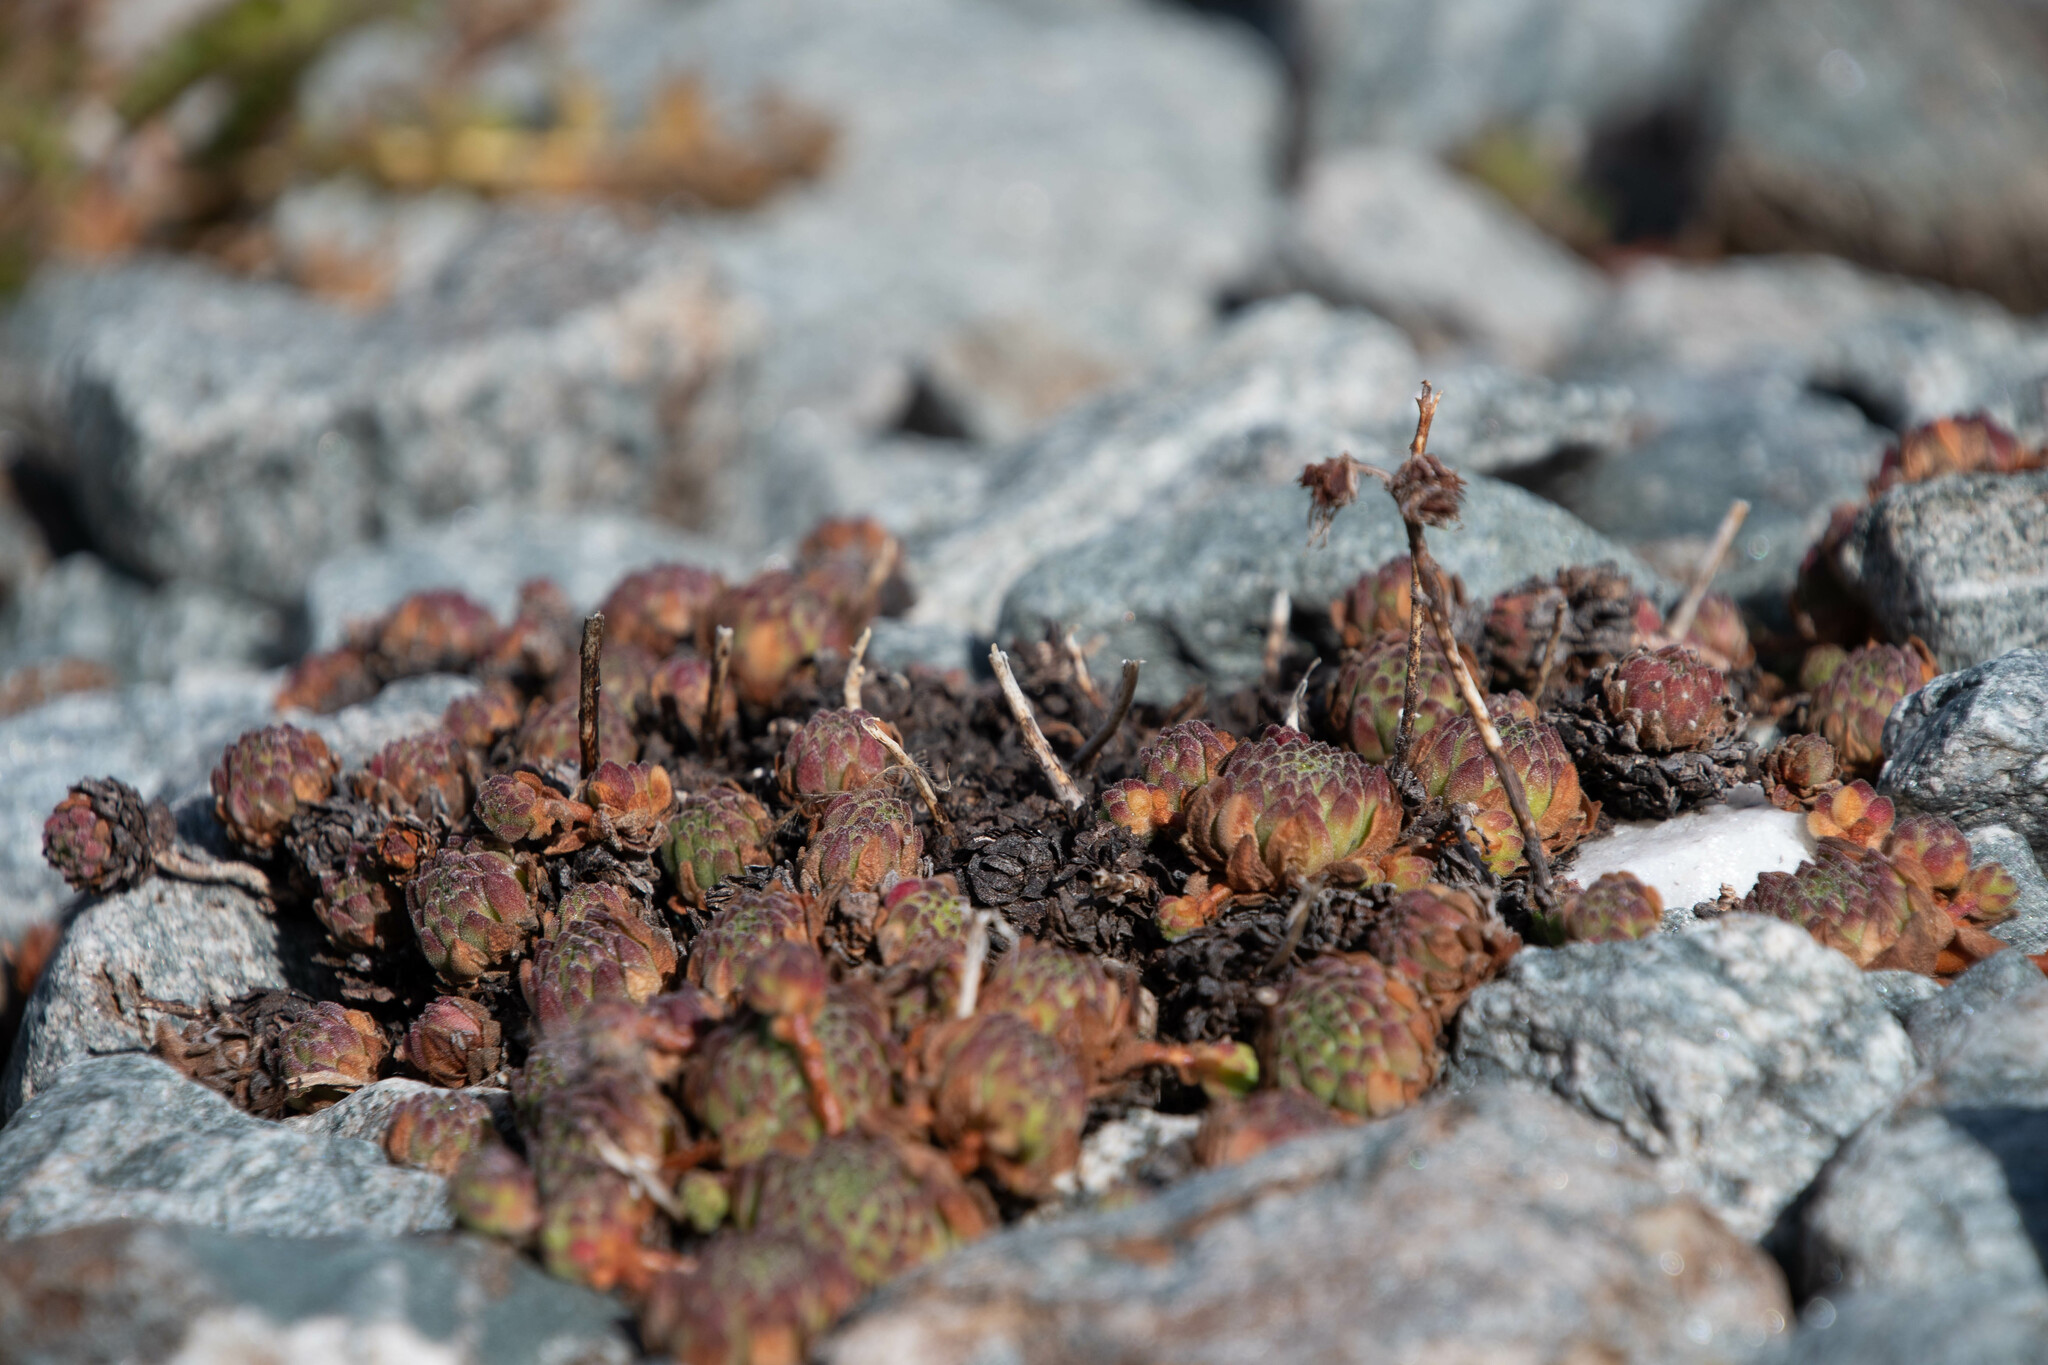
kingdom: Plantae
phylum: Tracheophyta
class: Magnoliopsida
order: Saxifragales
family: Crassulaceae
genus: Sempervivum
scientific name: Sempervivum montanum
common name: Mountain house-leek
